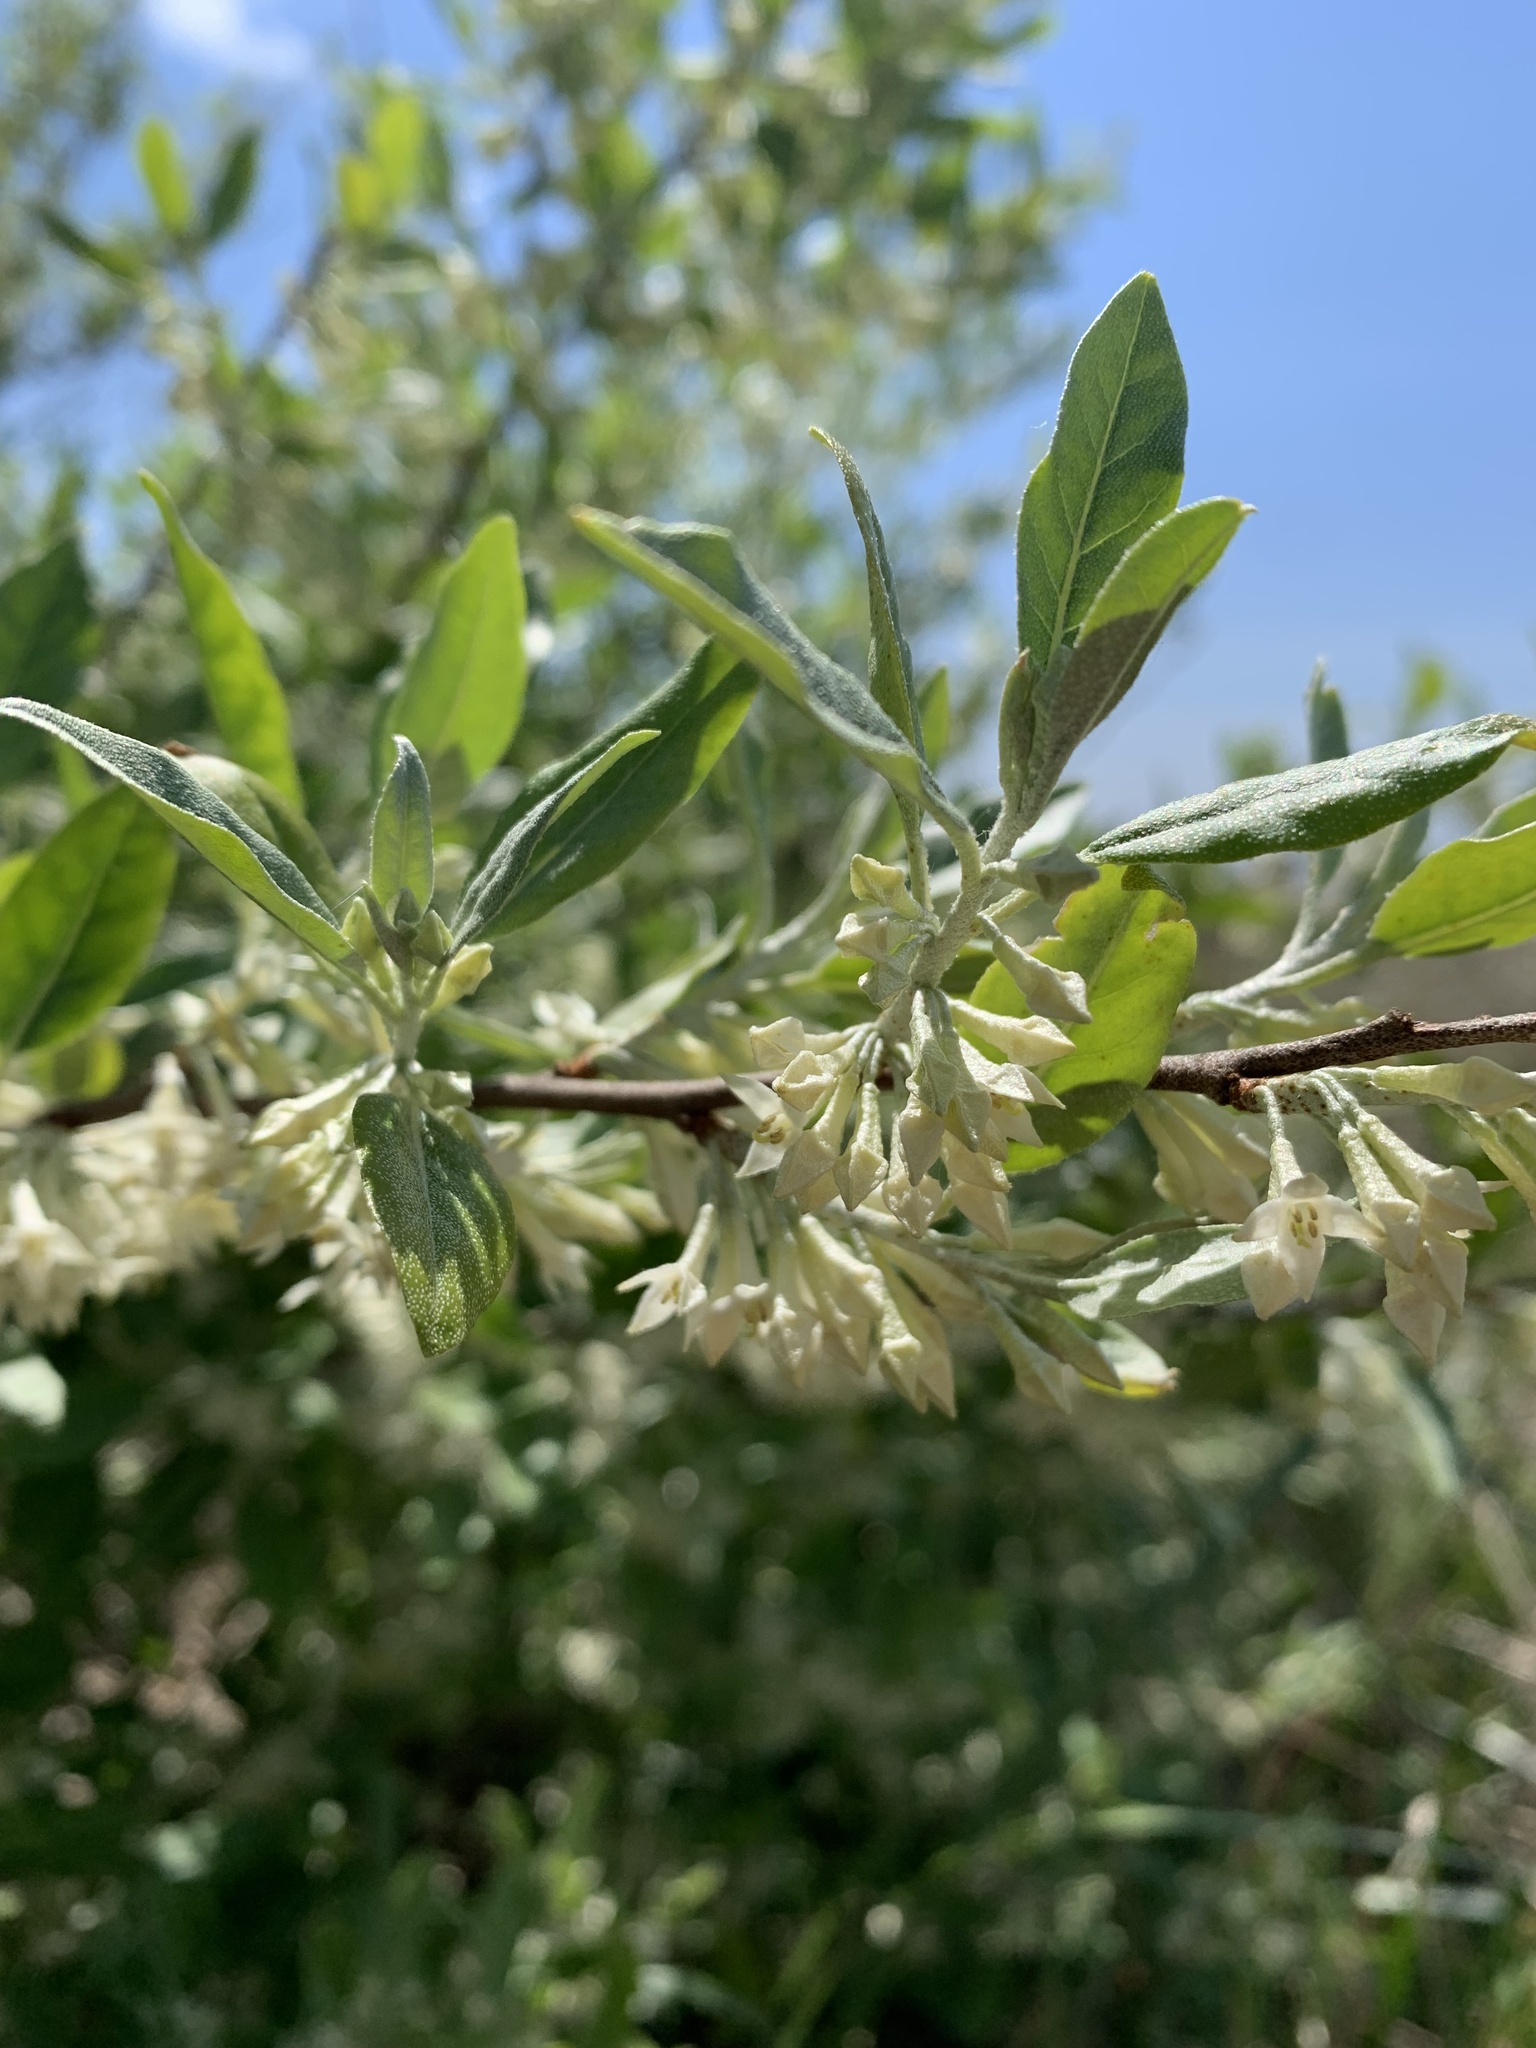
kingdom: Plantae
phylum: Tracheophyta
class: Magnoliopsida
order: Rosales
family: Elaeagnaceae
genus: Elaeagnus
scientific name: Elaeagnus umbellata
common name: Autumn olive
